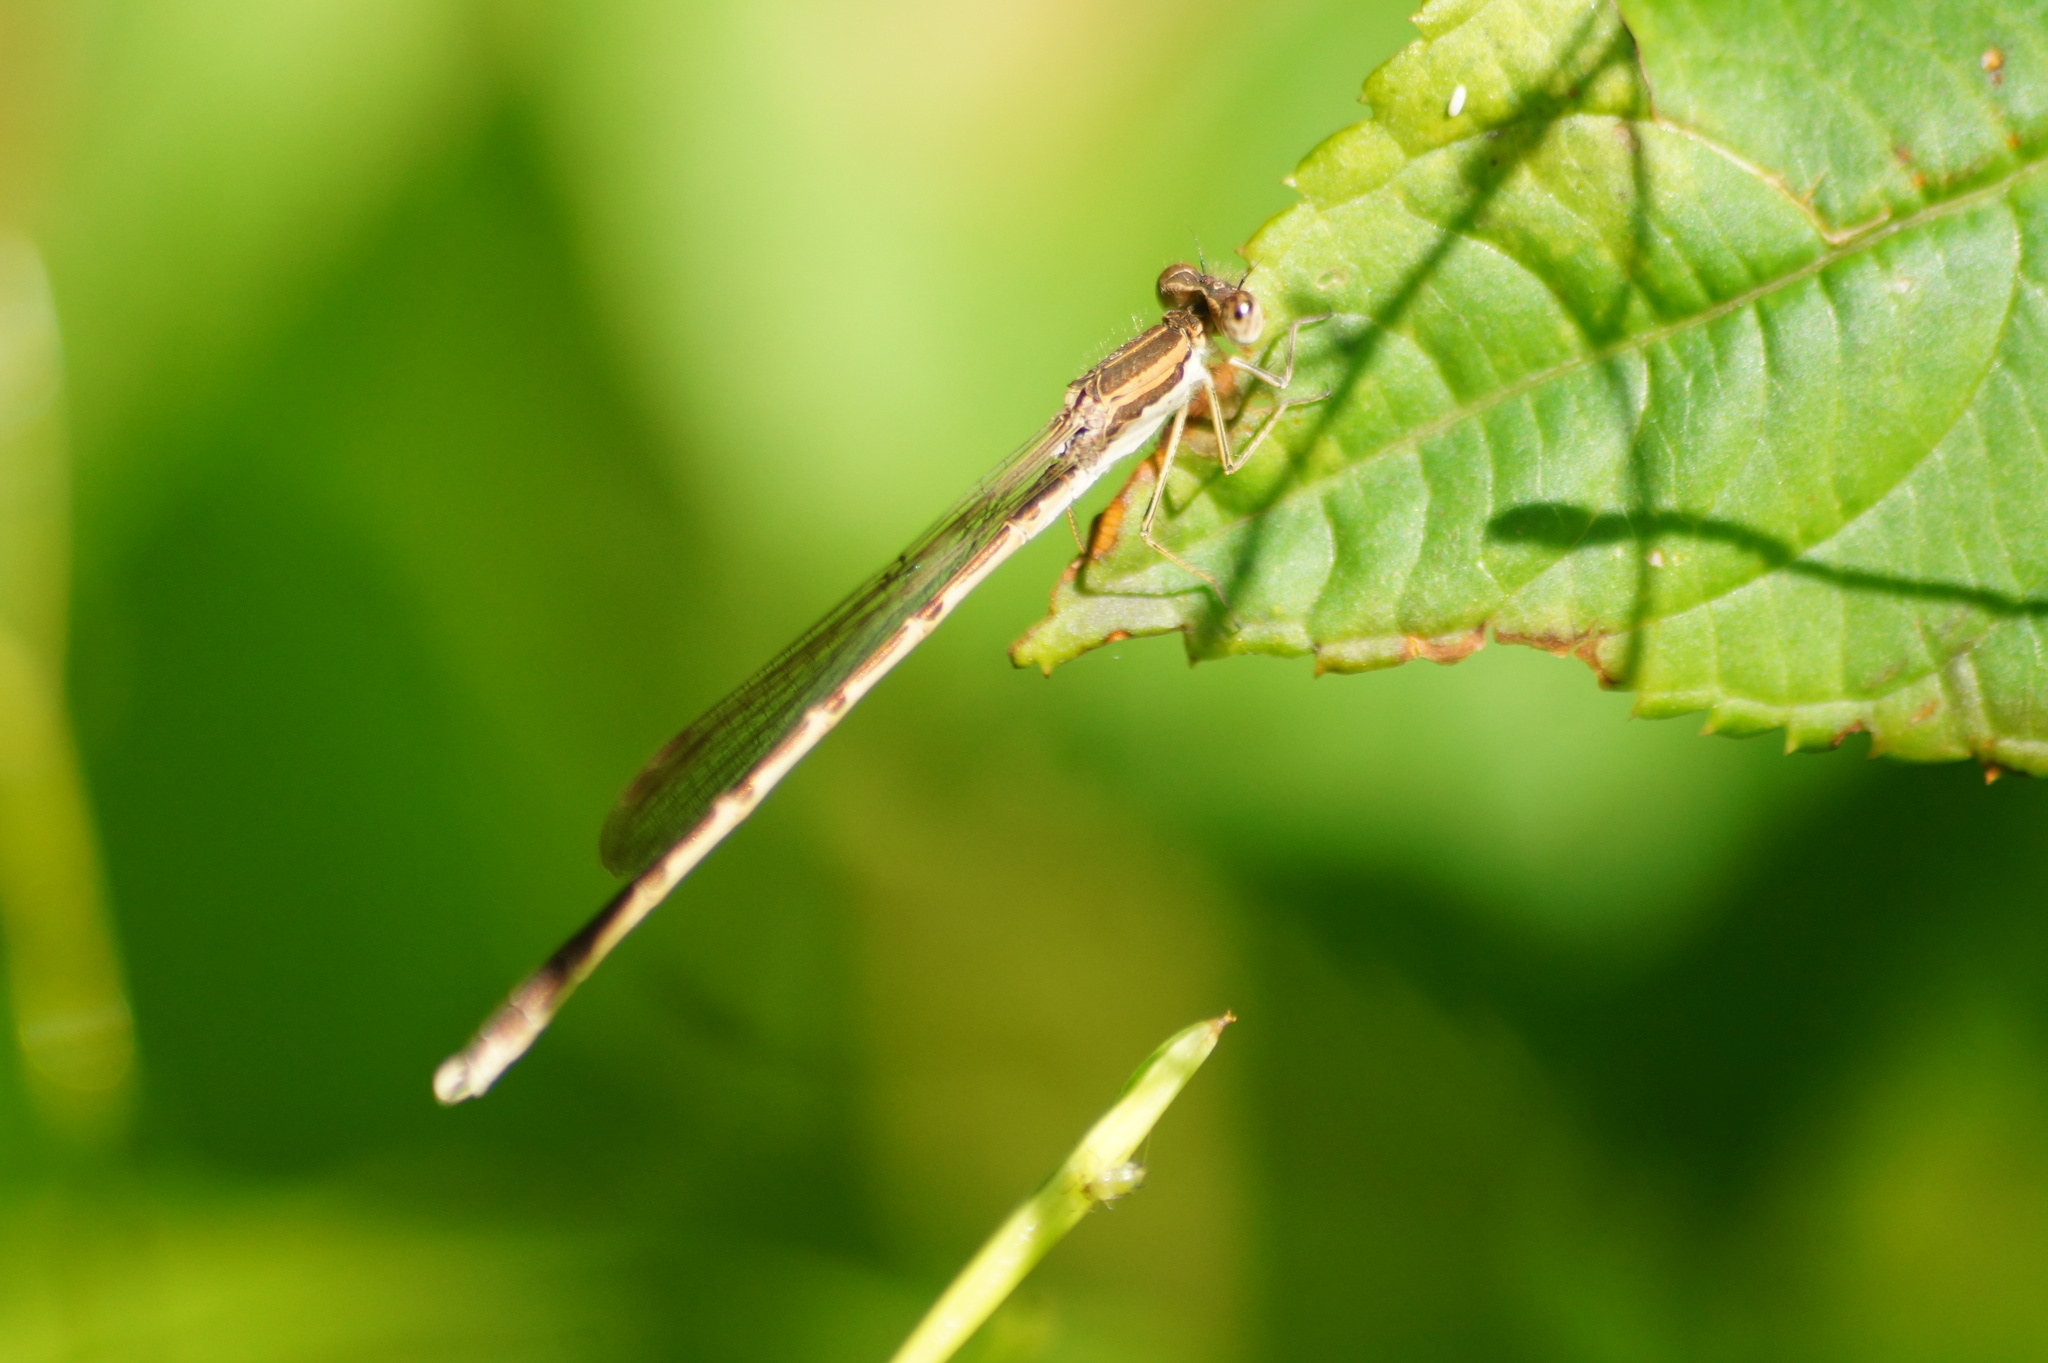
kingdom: Animalia
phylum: Arthropoda
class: Insecta
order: Odonata
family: Lestidae
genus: Sympecma
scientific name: Sympecma fusca
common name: Common winter damsel
